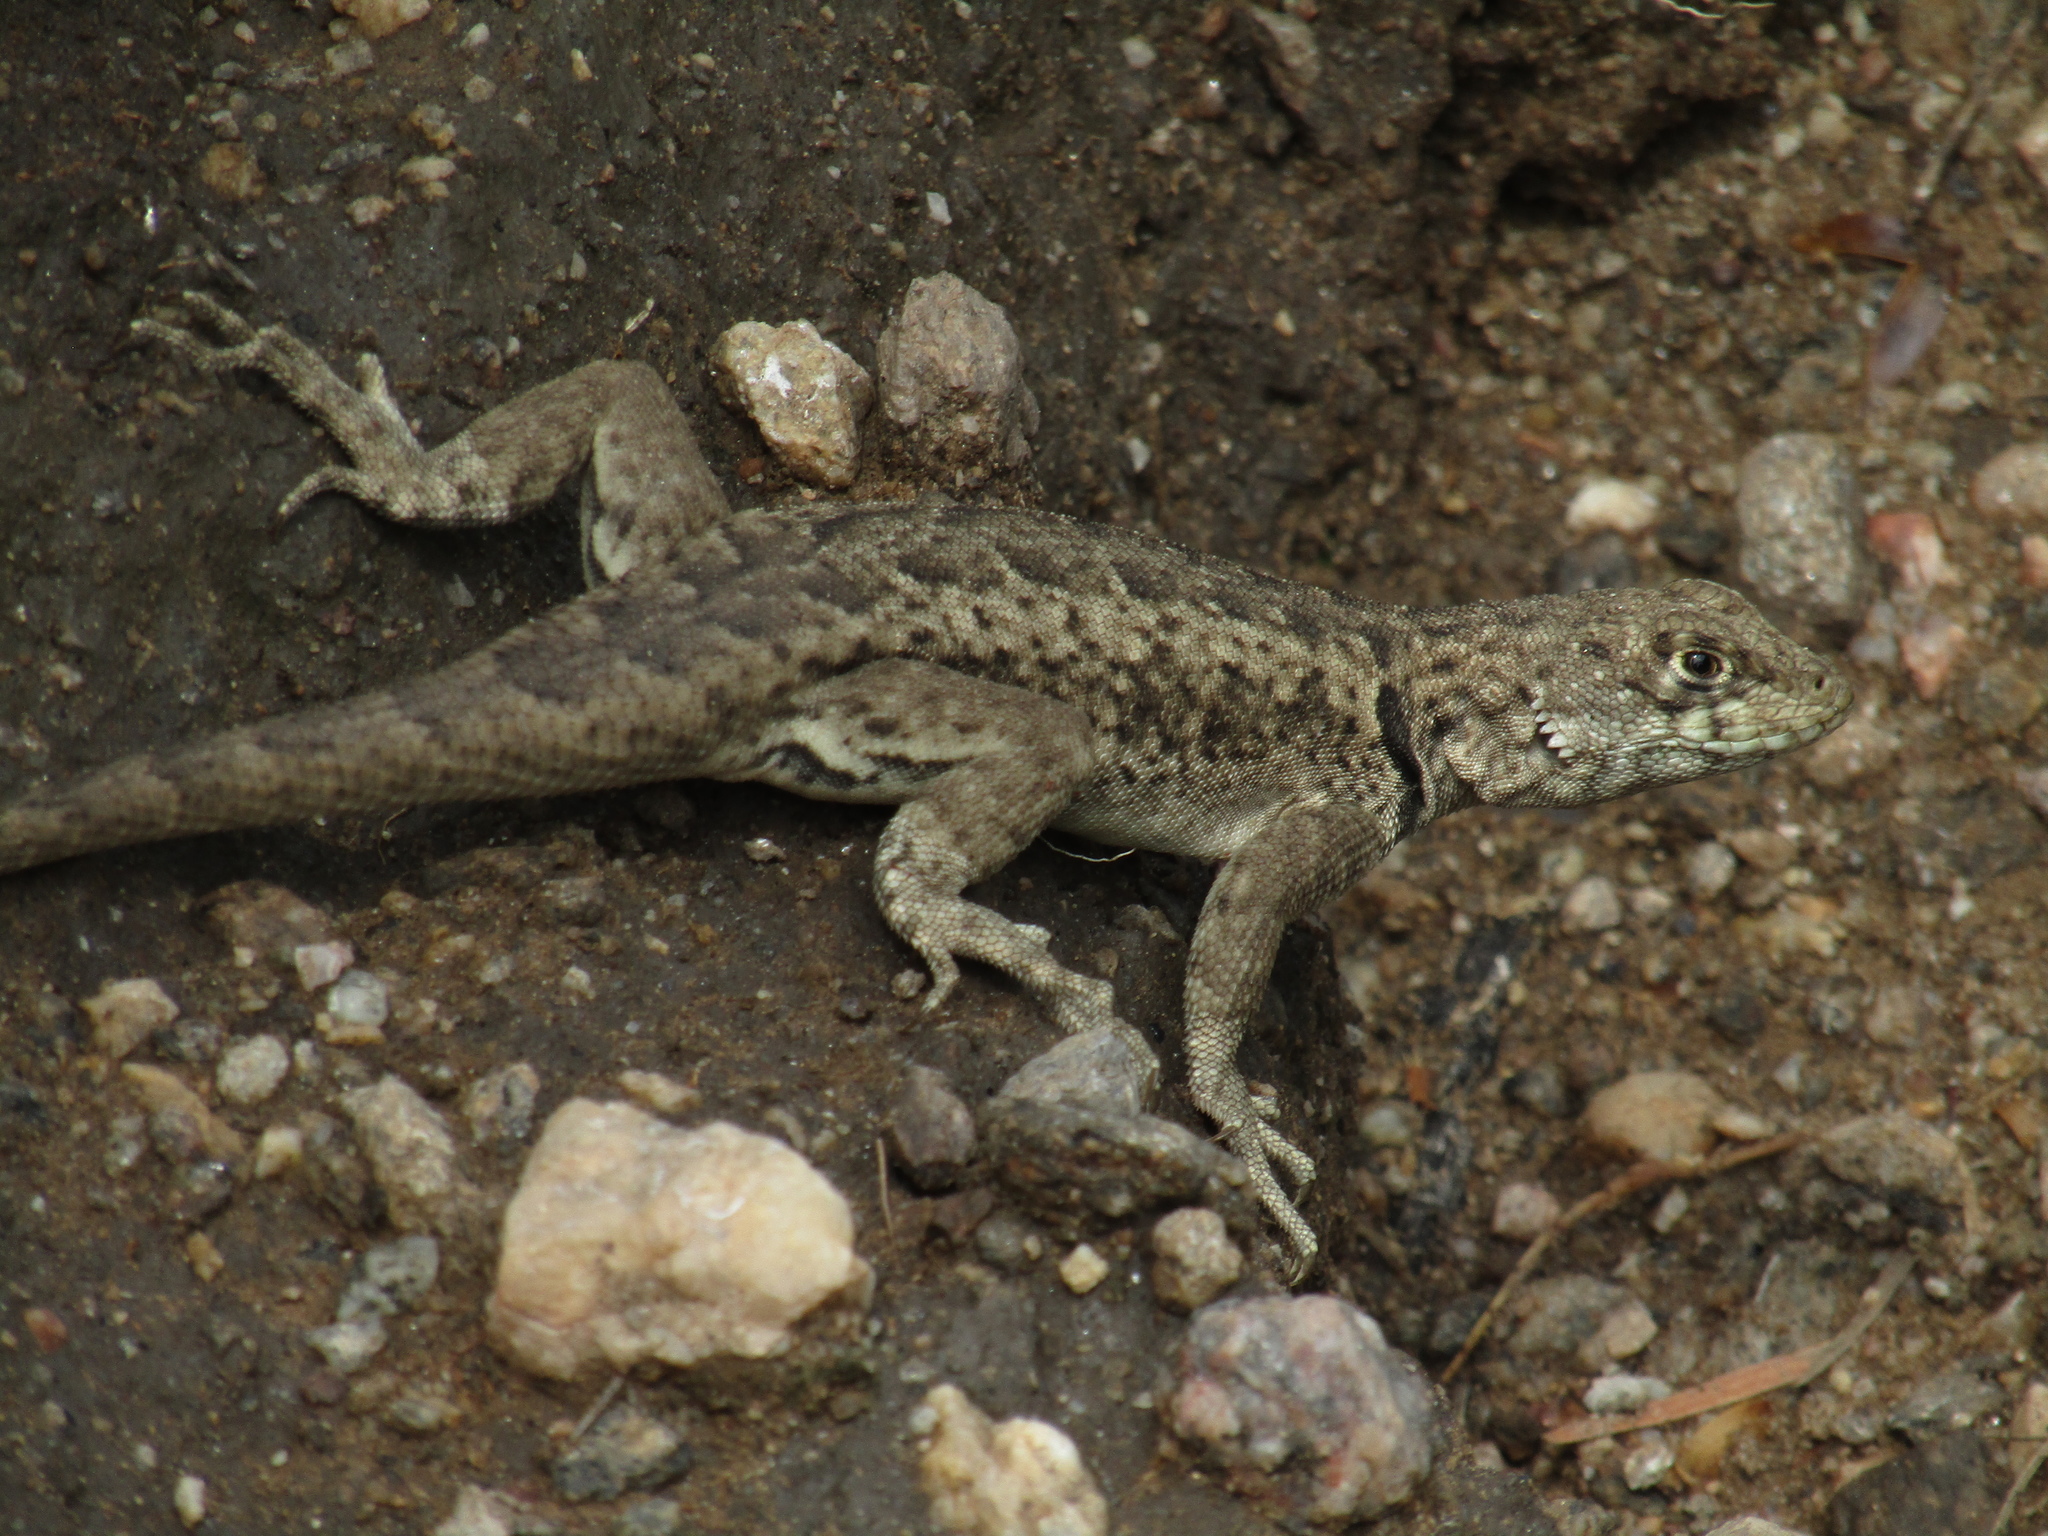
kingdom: Animalia
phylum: Chordata
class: Squamata
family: Tropiduridae
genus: Tropidurus
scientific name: Tropidurus etheridgei
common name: Etheridge's lava lizard
